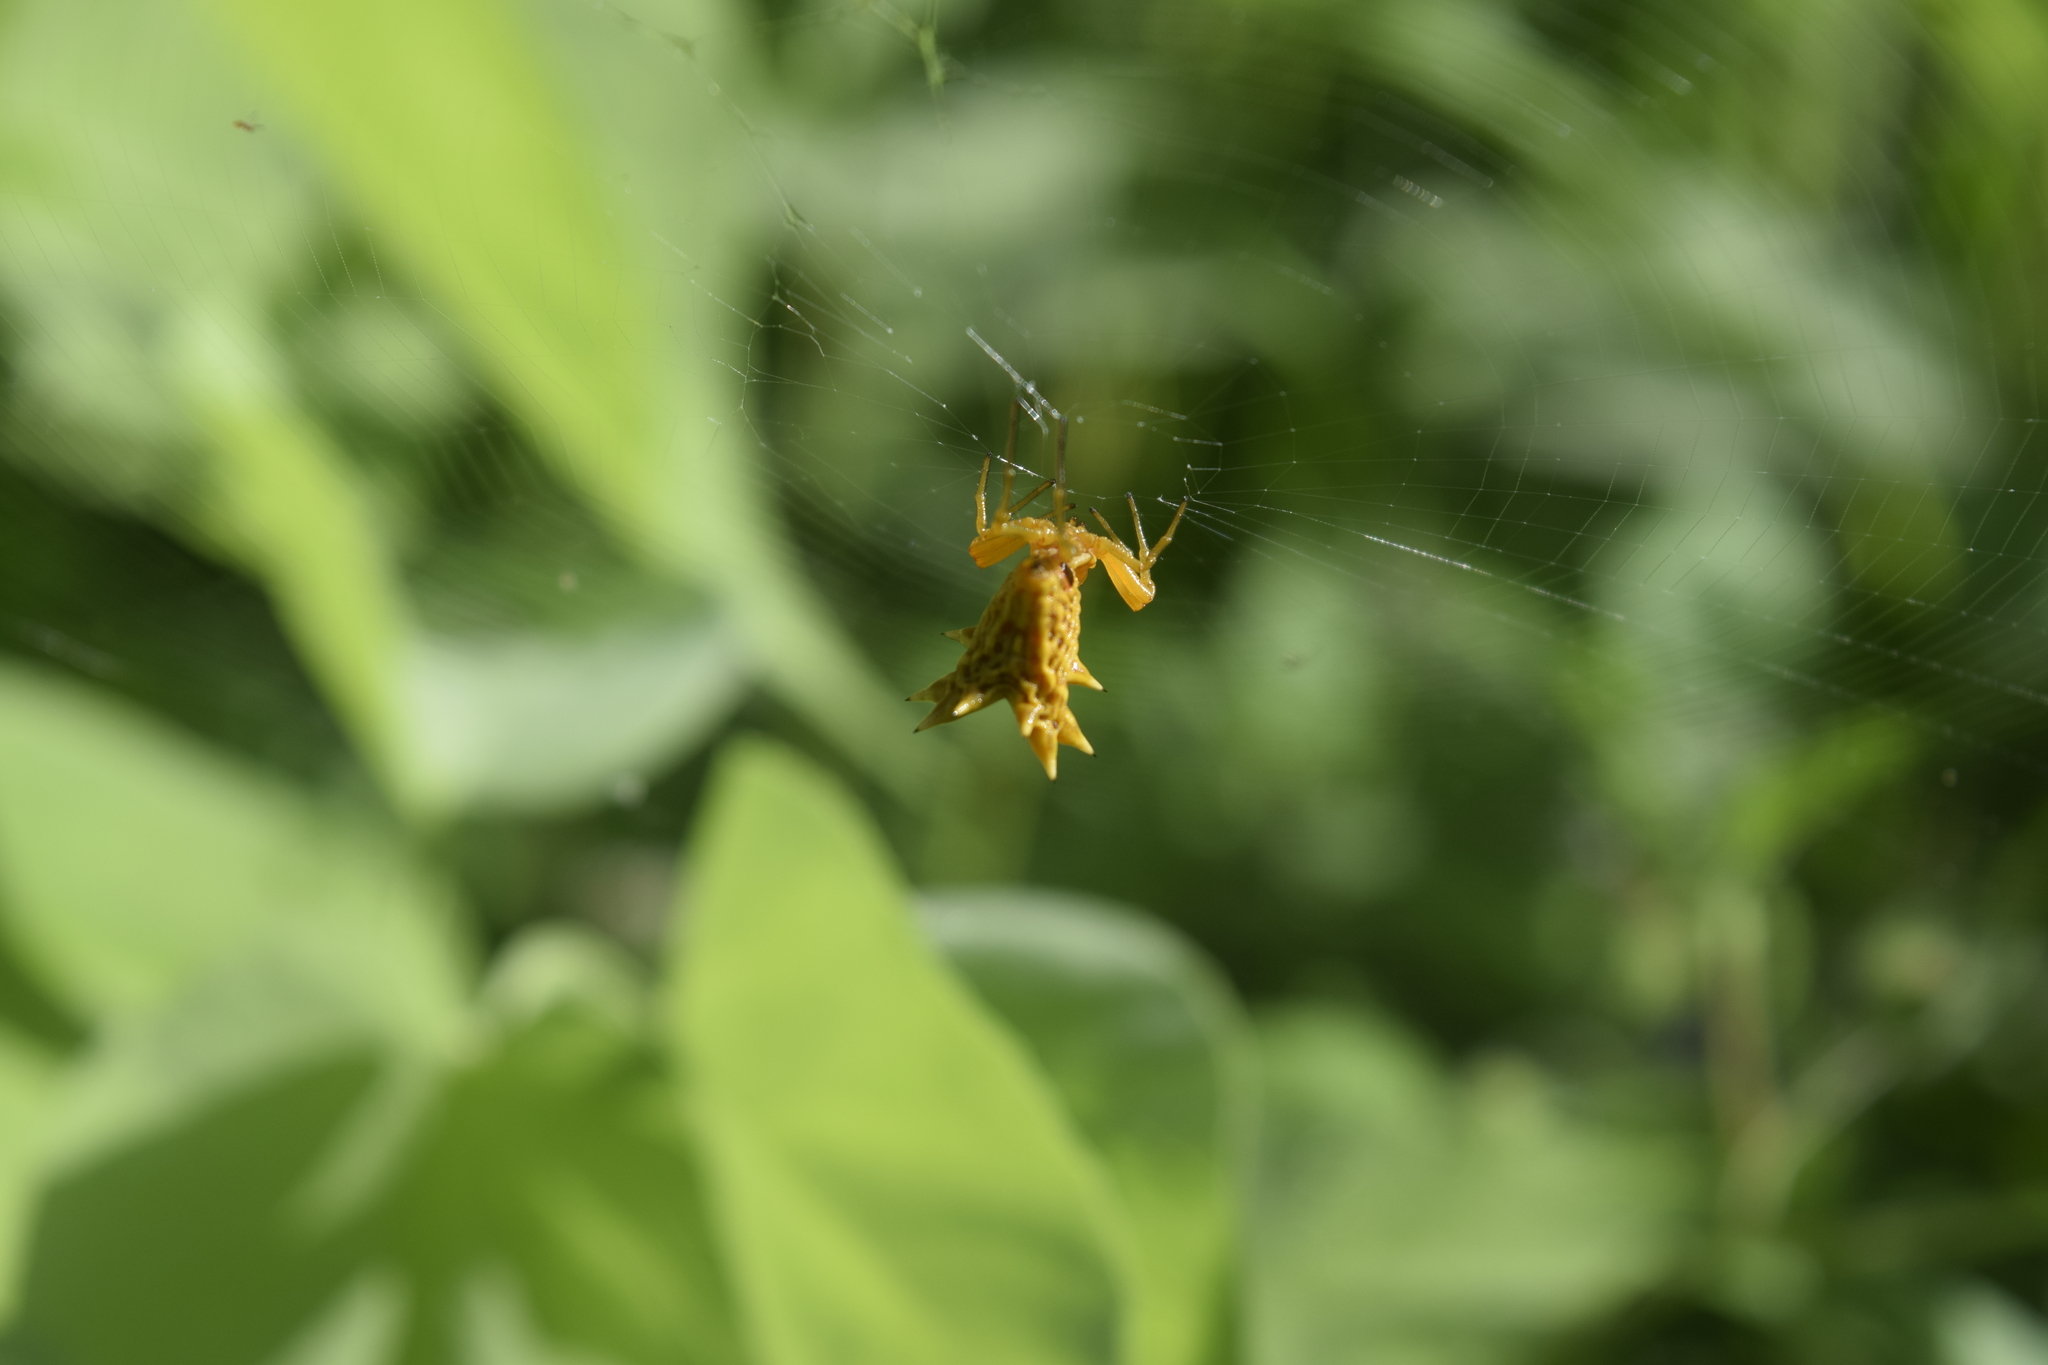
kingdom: Animalia
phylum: Arthropoda
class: Arachnida
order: Araneae
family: Araneidae
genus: Micrathena
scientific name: Micrathena gracilis
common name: Orb weavers
